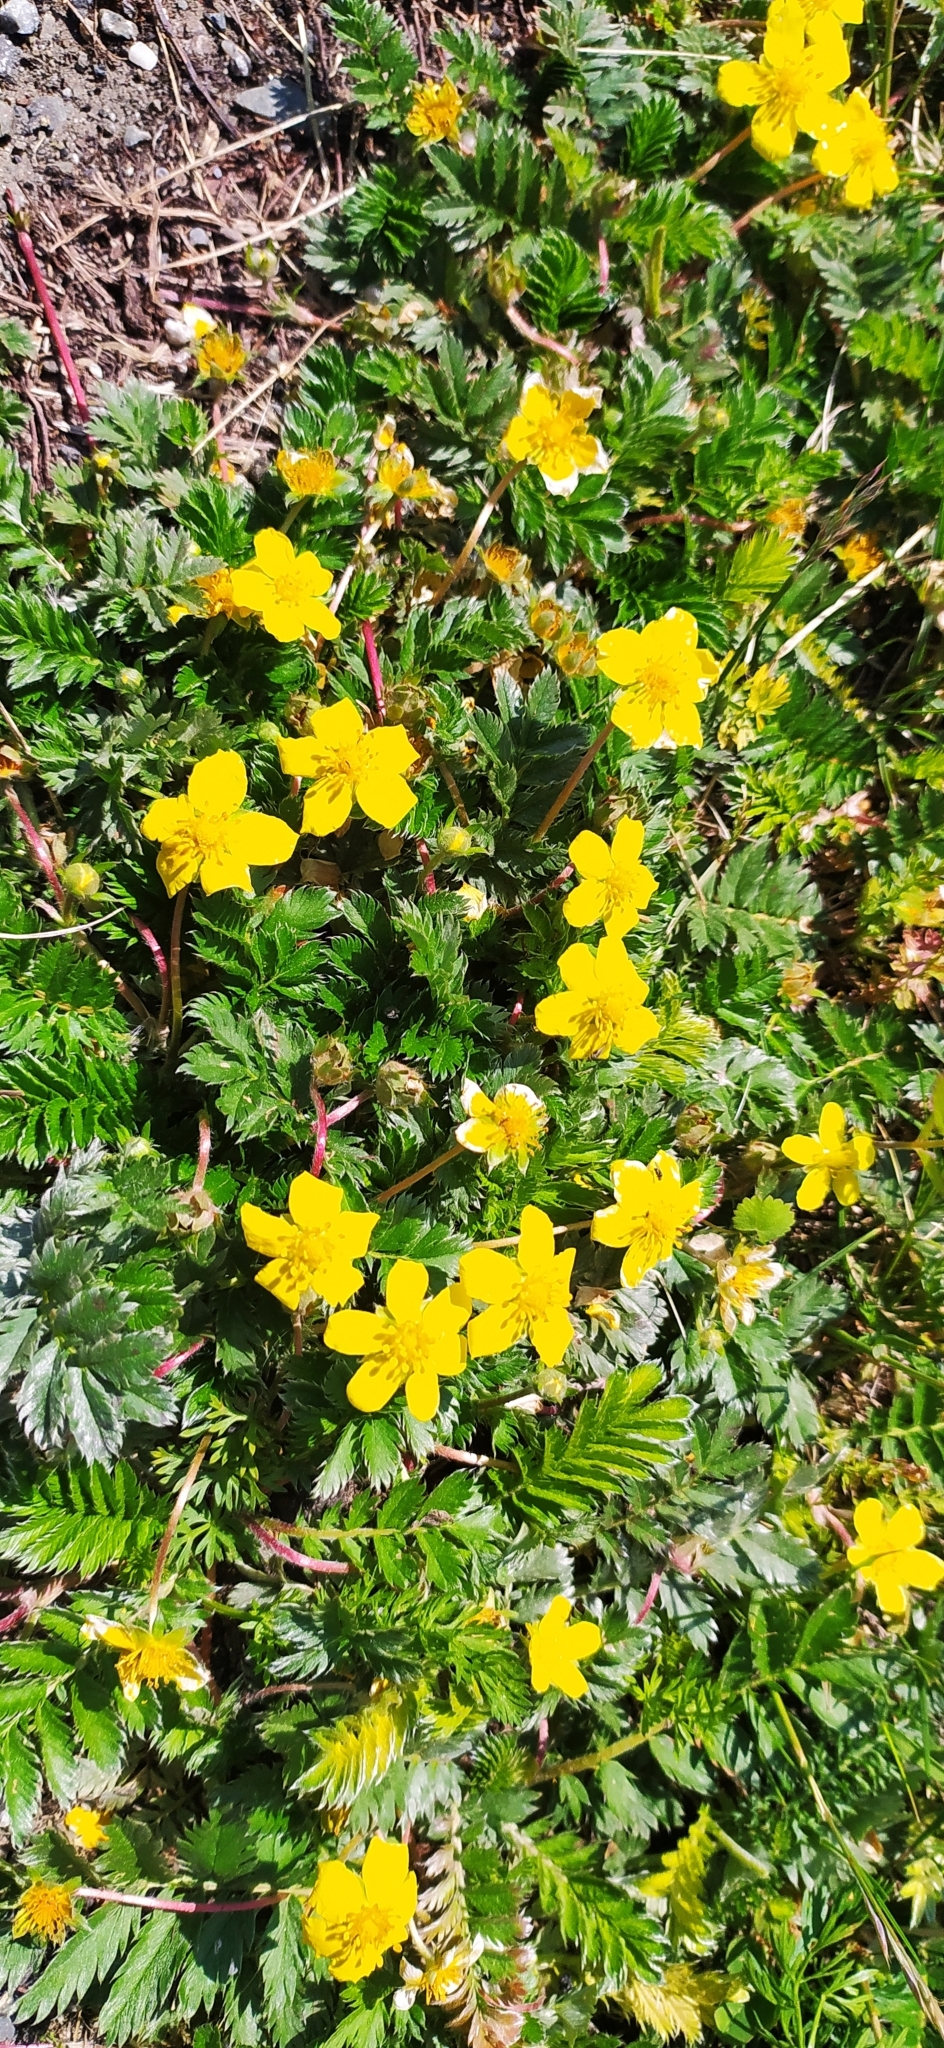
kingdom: Plantae
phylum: Tracheophyta
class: Magnoliopsida
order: Rosales
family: Rosaceae
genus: Argentina
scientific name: Argentina anserina
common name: Common silverweed
